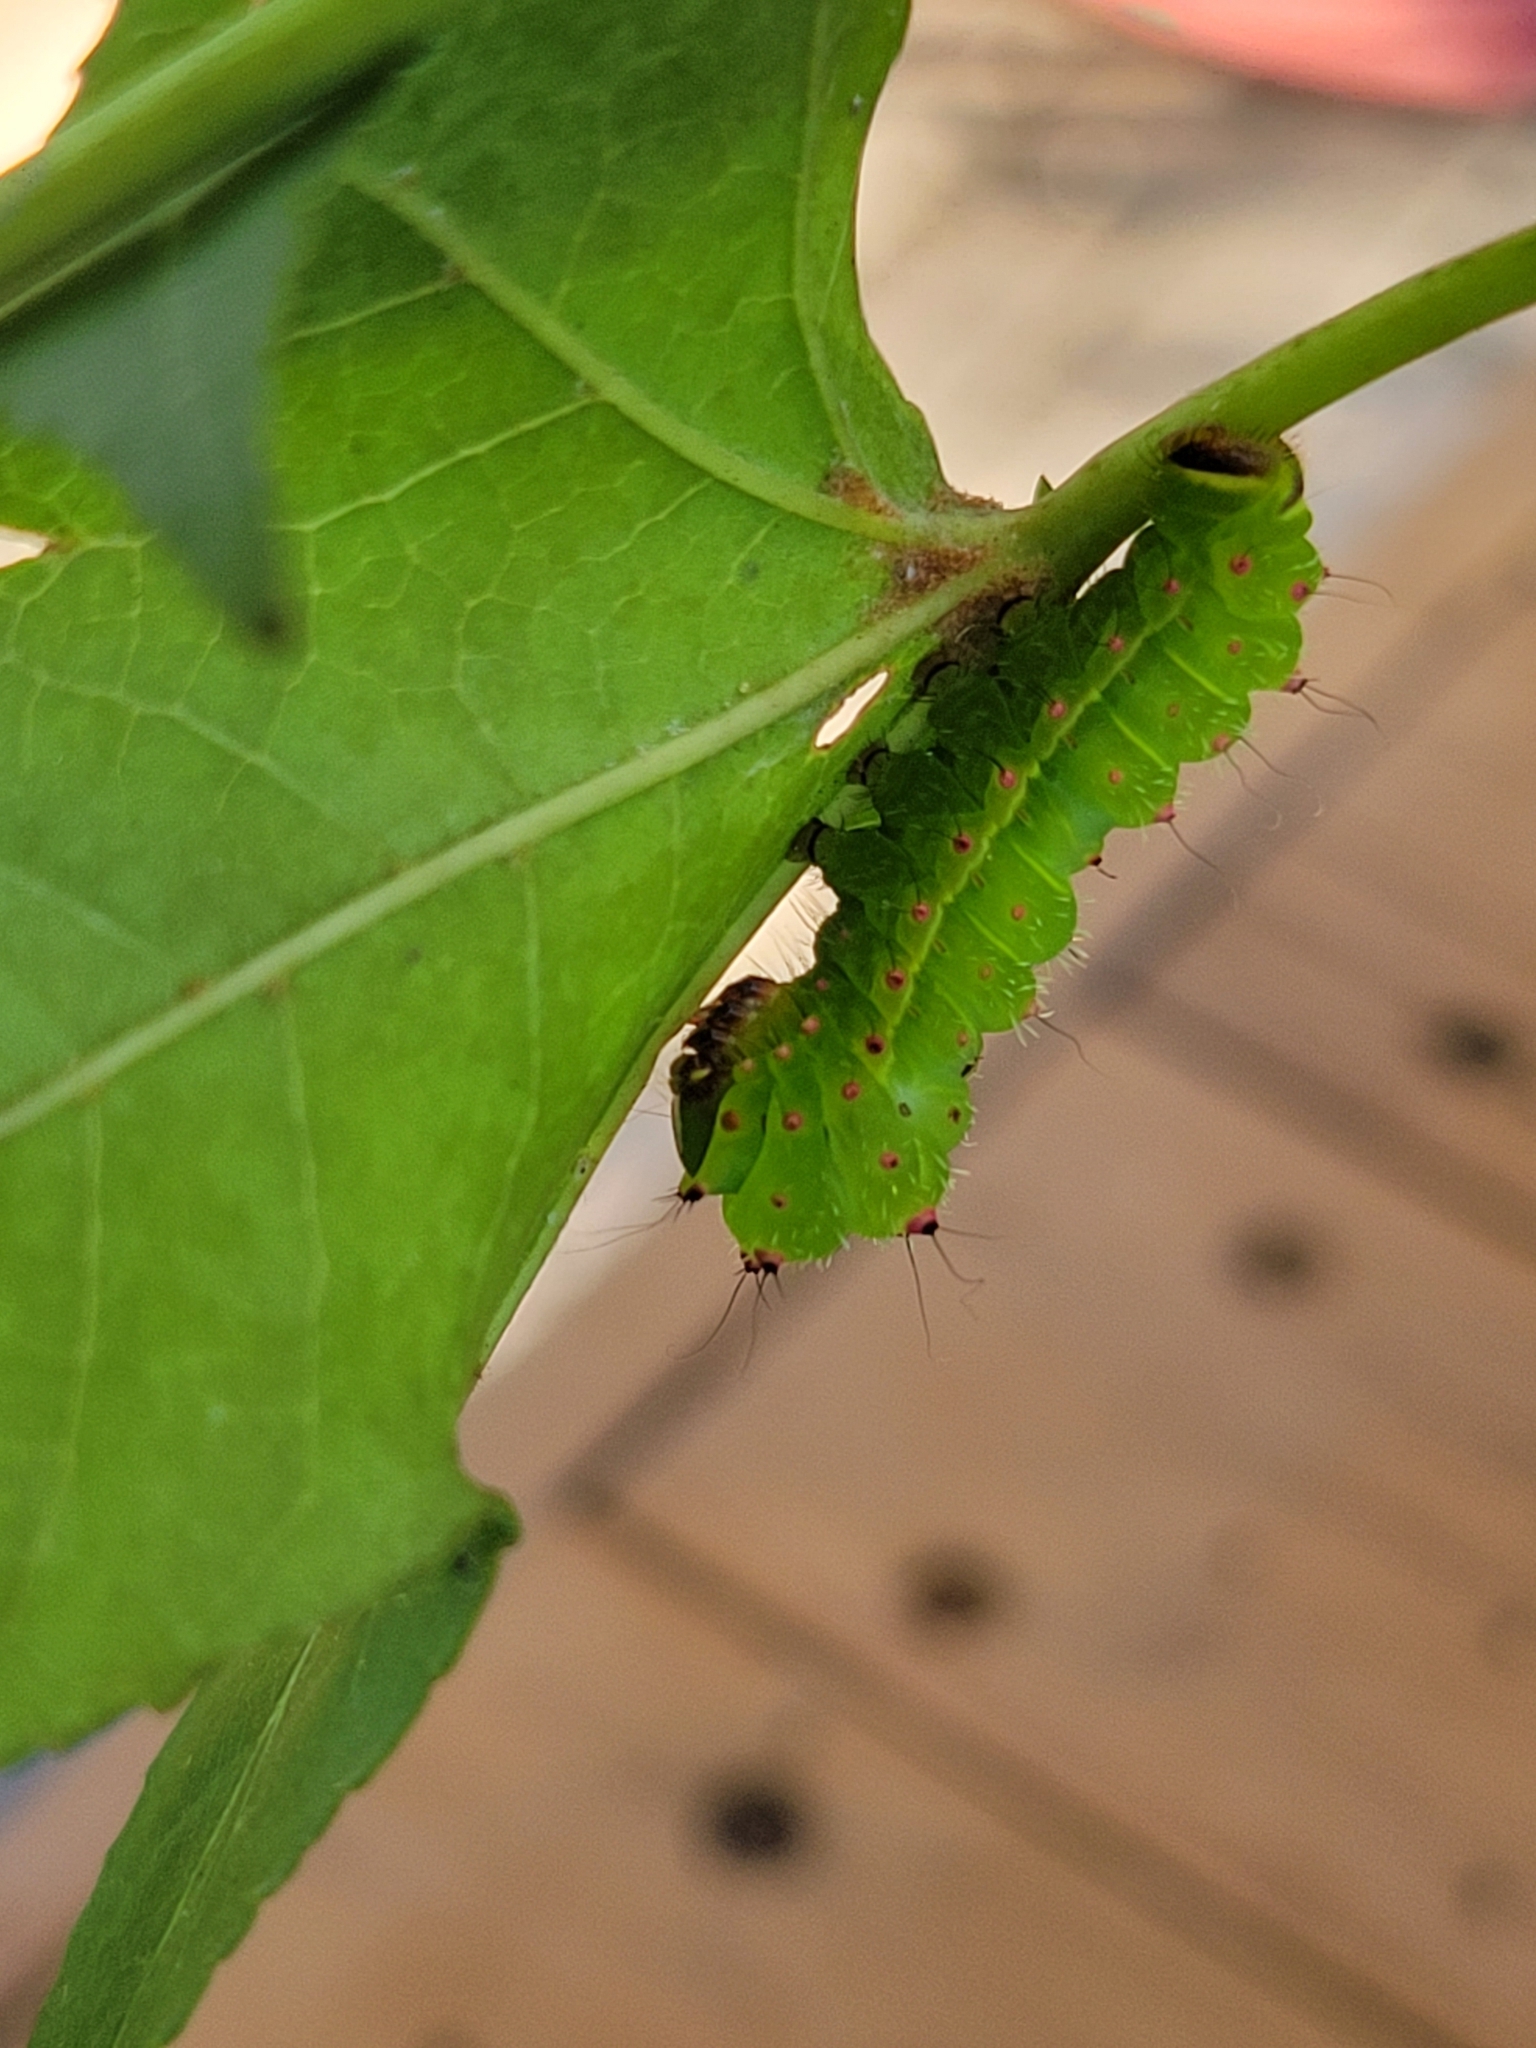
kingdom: Animalia
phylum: Arthropoda
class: Insecta
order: Lepidoptera
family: Saturniidae
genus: Actias
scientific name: Actias luna
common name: Luna moth
